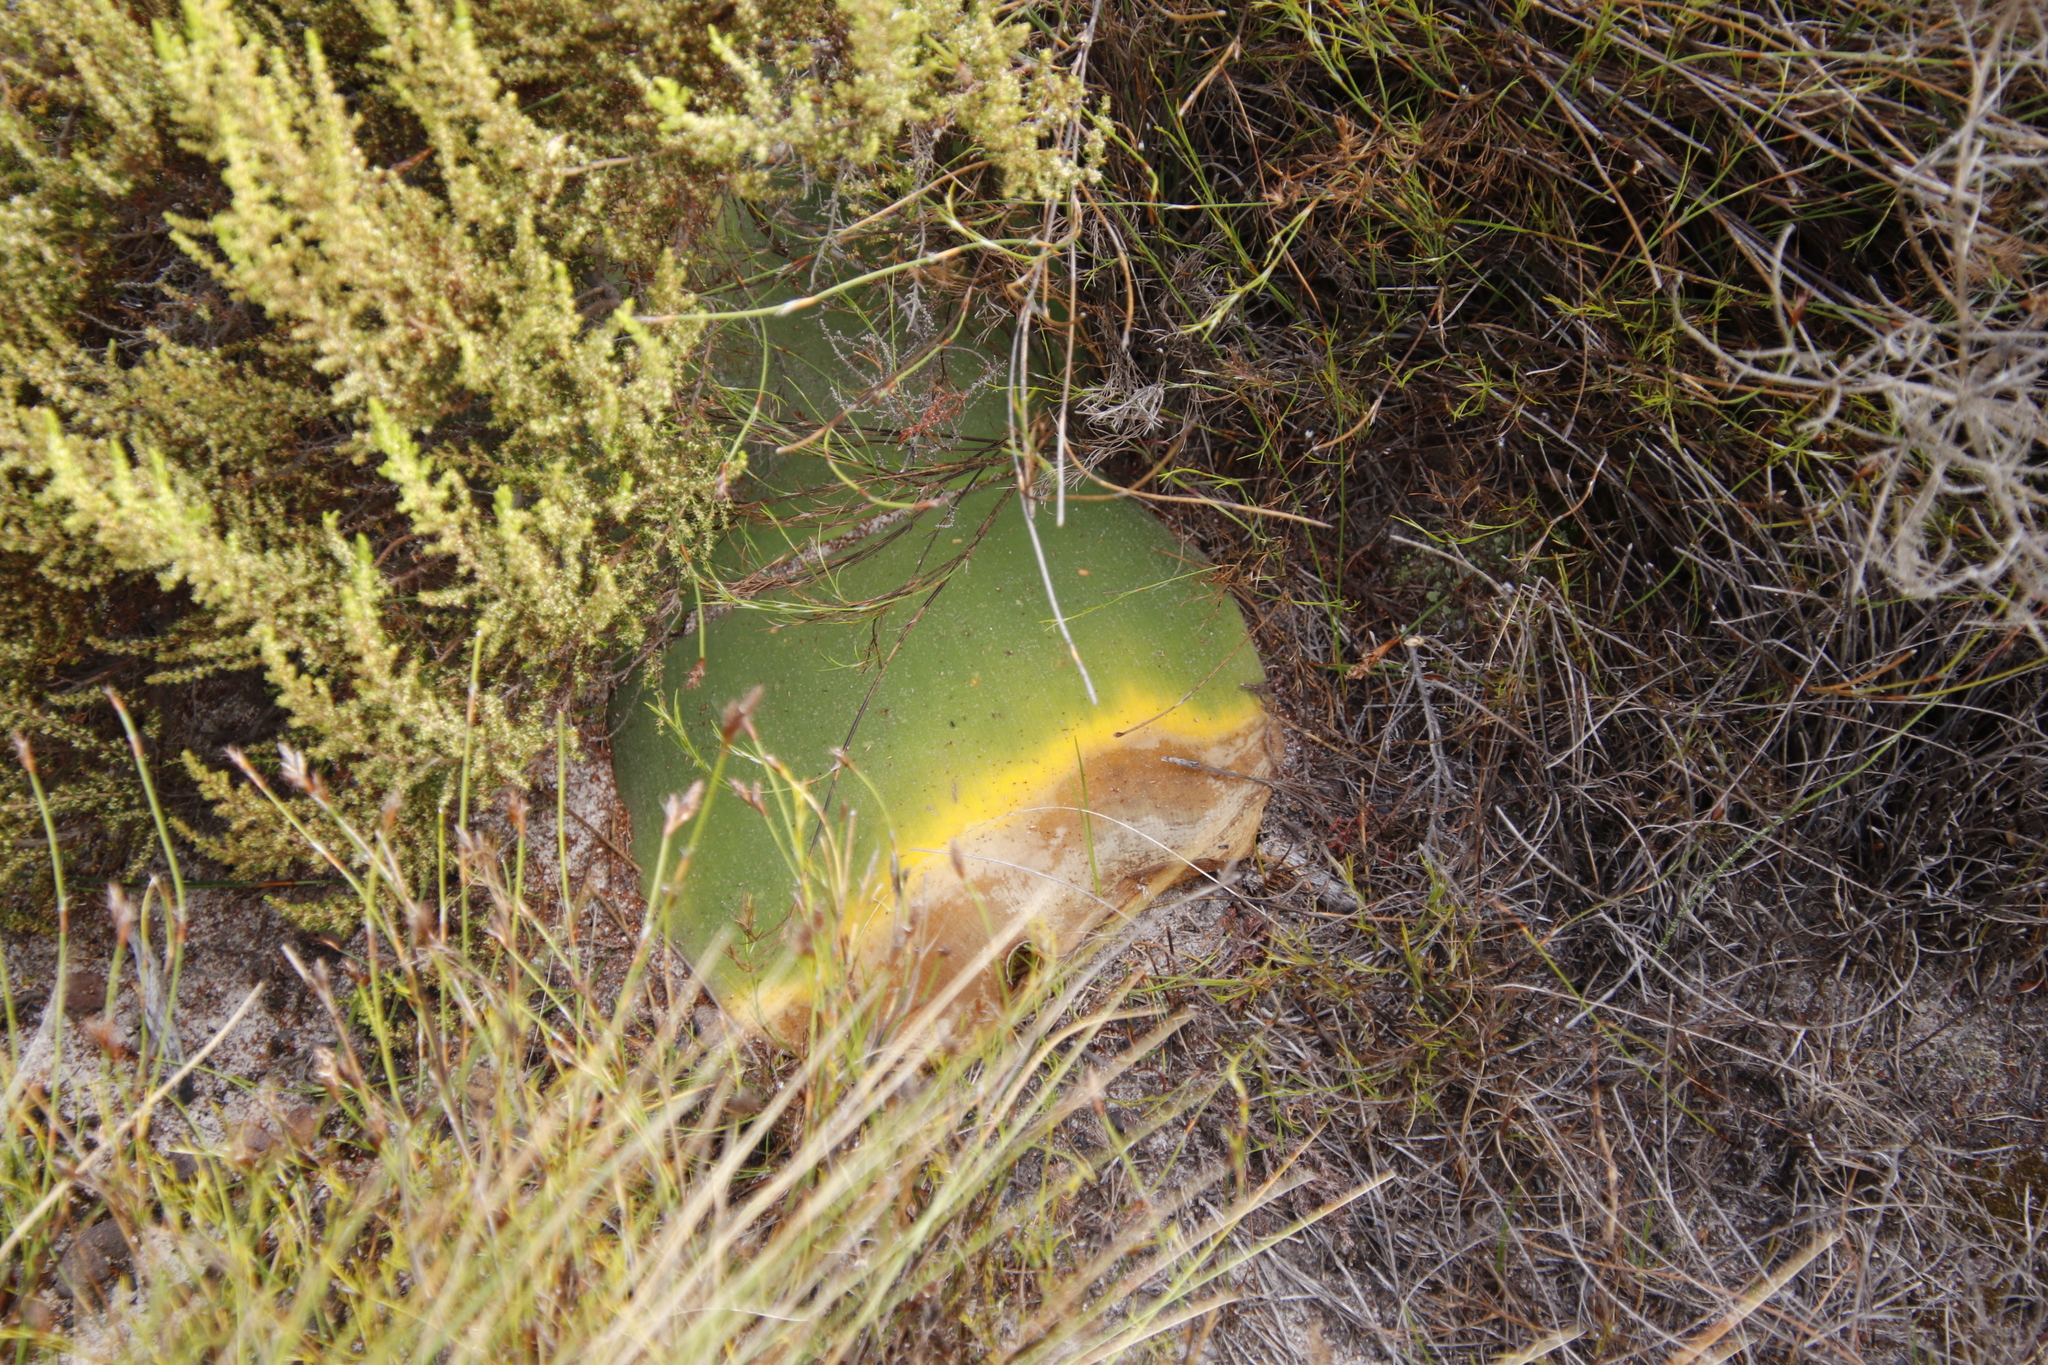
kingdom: Plantae
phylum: Tracheophyta
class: Liliopsida
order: Asparagales
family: Amaryllidaceae
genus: Haemanthus
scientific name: Haemanthus sanguineus
